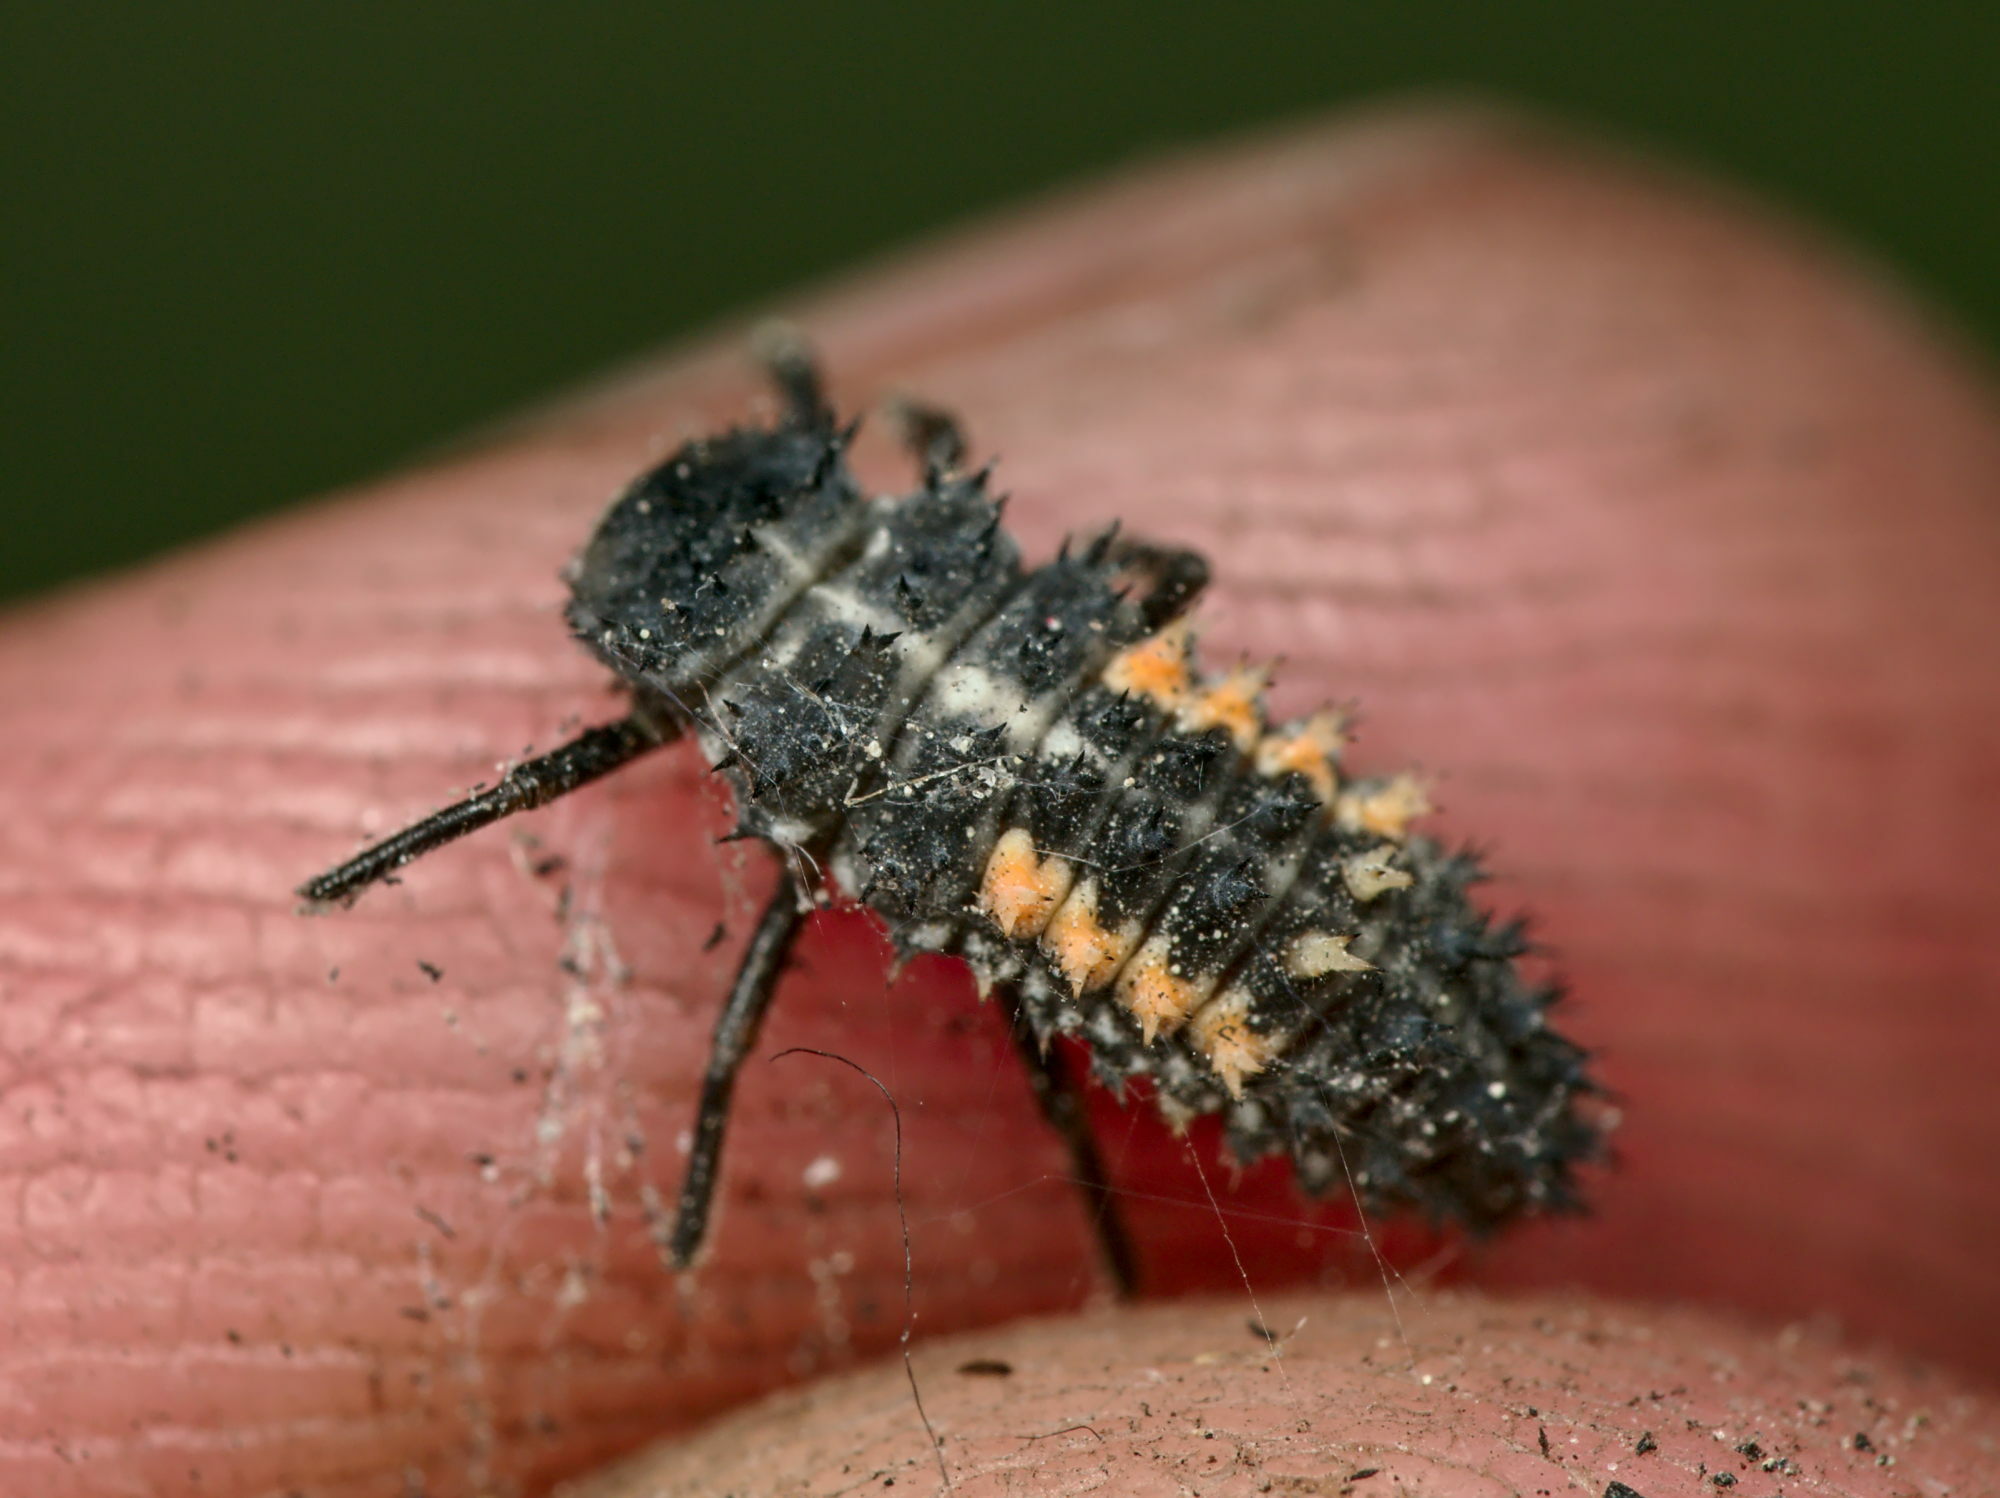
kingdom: Animalia
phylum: Arthropoda
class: Insecta
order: Coleoptera
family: Coccinellidae
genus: Harmonia
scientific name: Harmonia quadripunctata
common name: Cream-streaked ladybird
